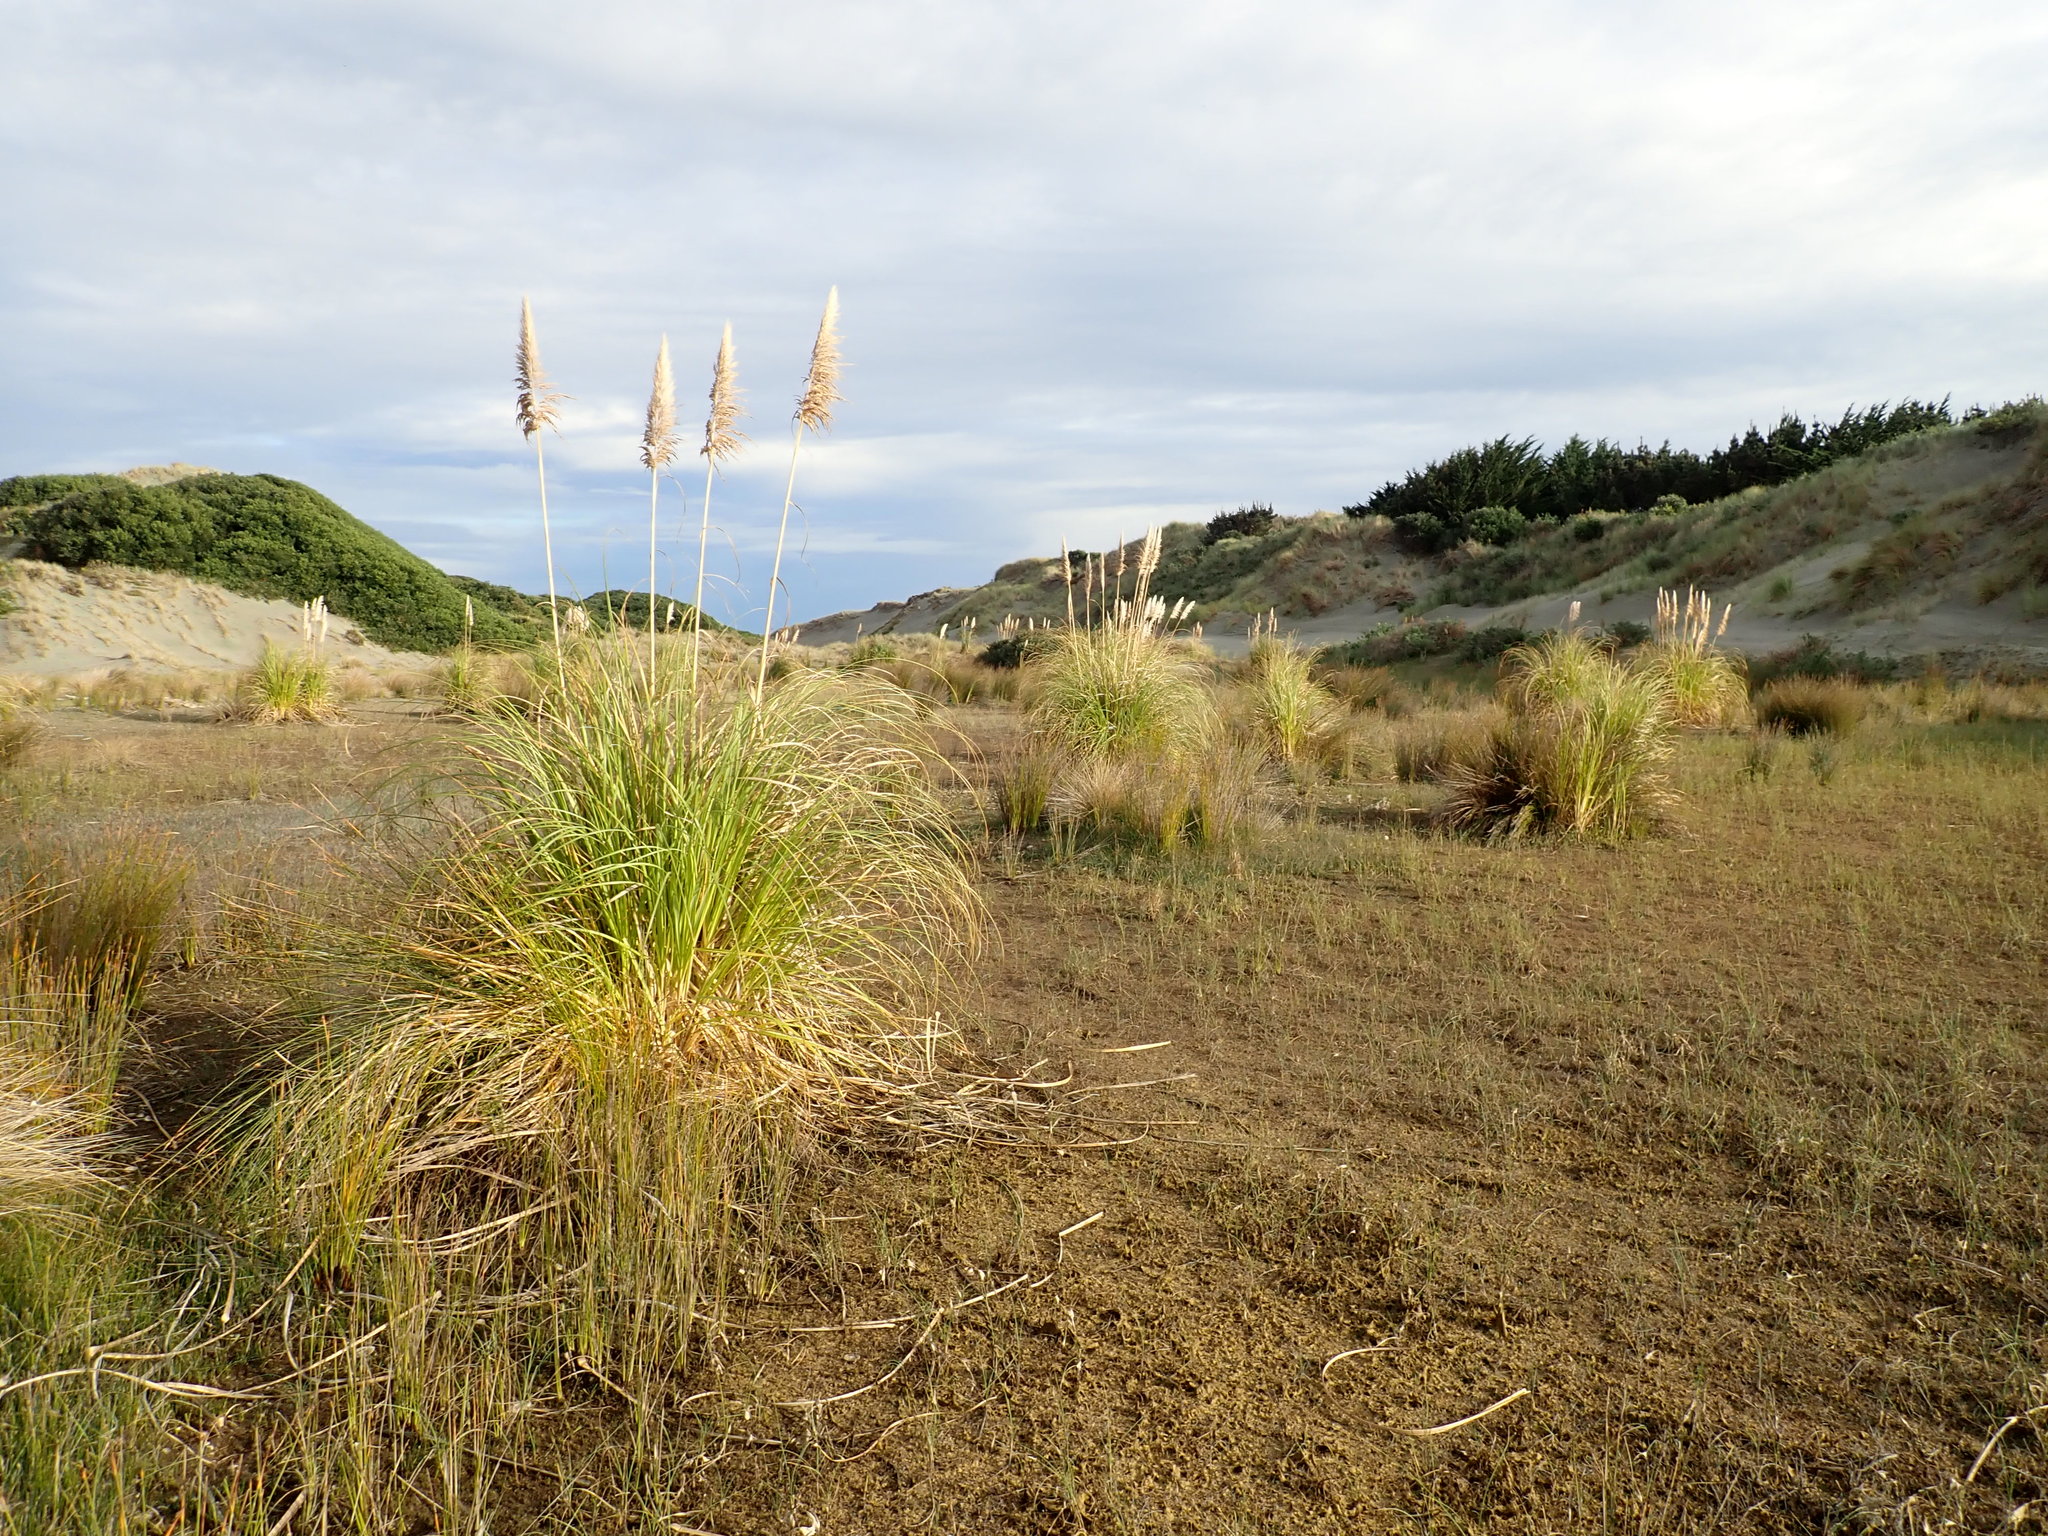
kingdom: Plantae
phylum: Tracheophyta
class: Liliopsida
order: Poales
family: Poaceae
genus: Cortaderia
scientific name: Cortaderia selloana
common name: Uruguayan pampas grass
